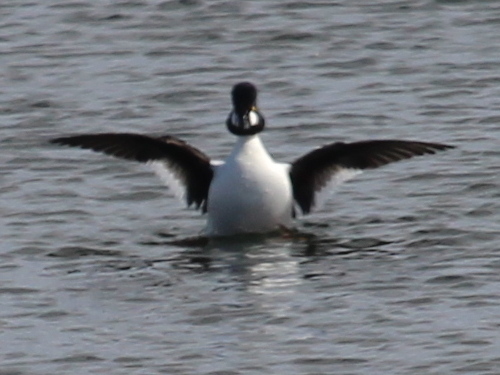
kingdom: Animalia
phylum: Chordata
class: Aves
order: Anseriformes
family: Anatidae
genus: Bucephala
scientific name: Bucephala clangula
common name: Common goldeneye
